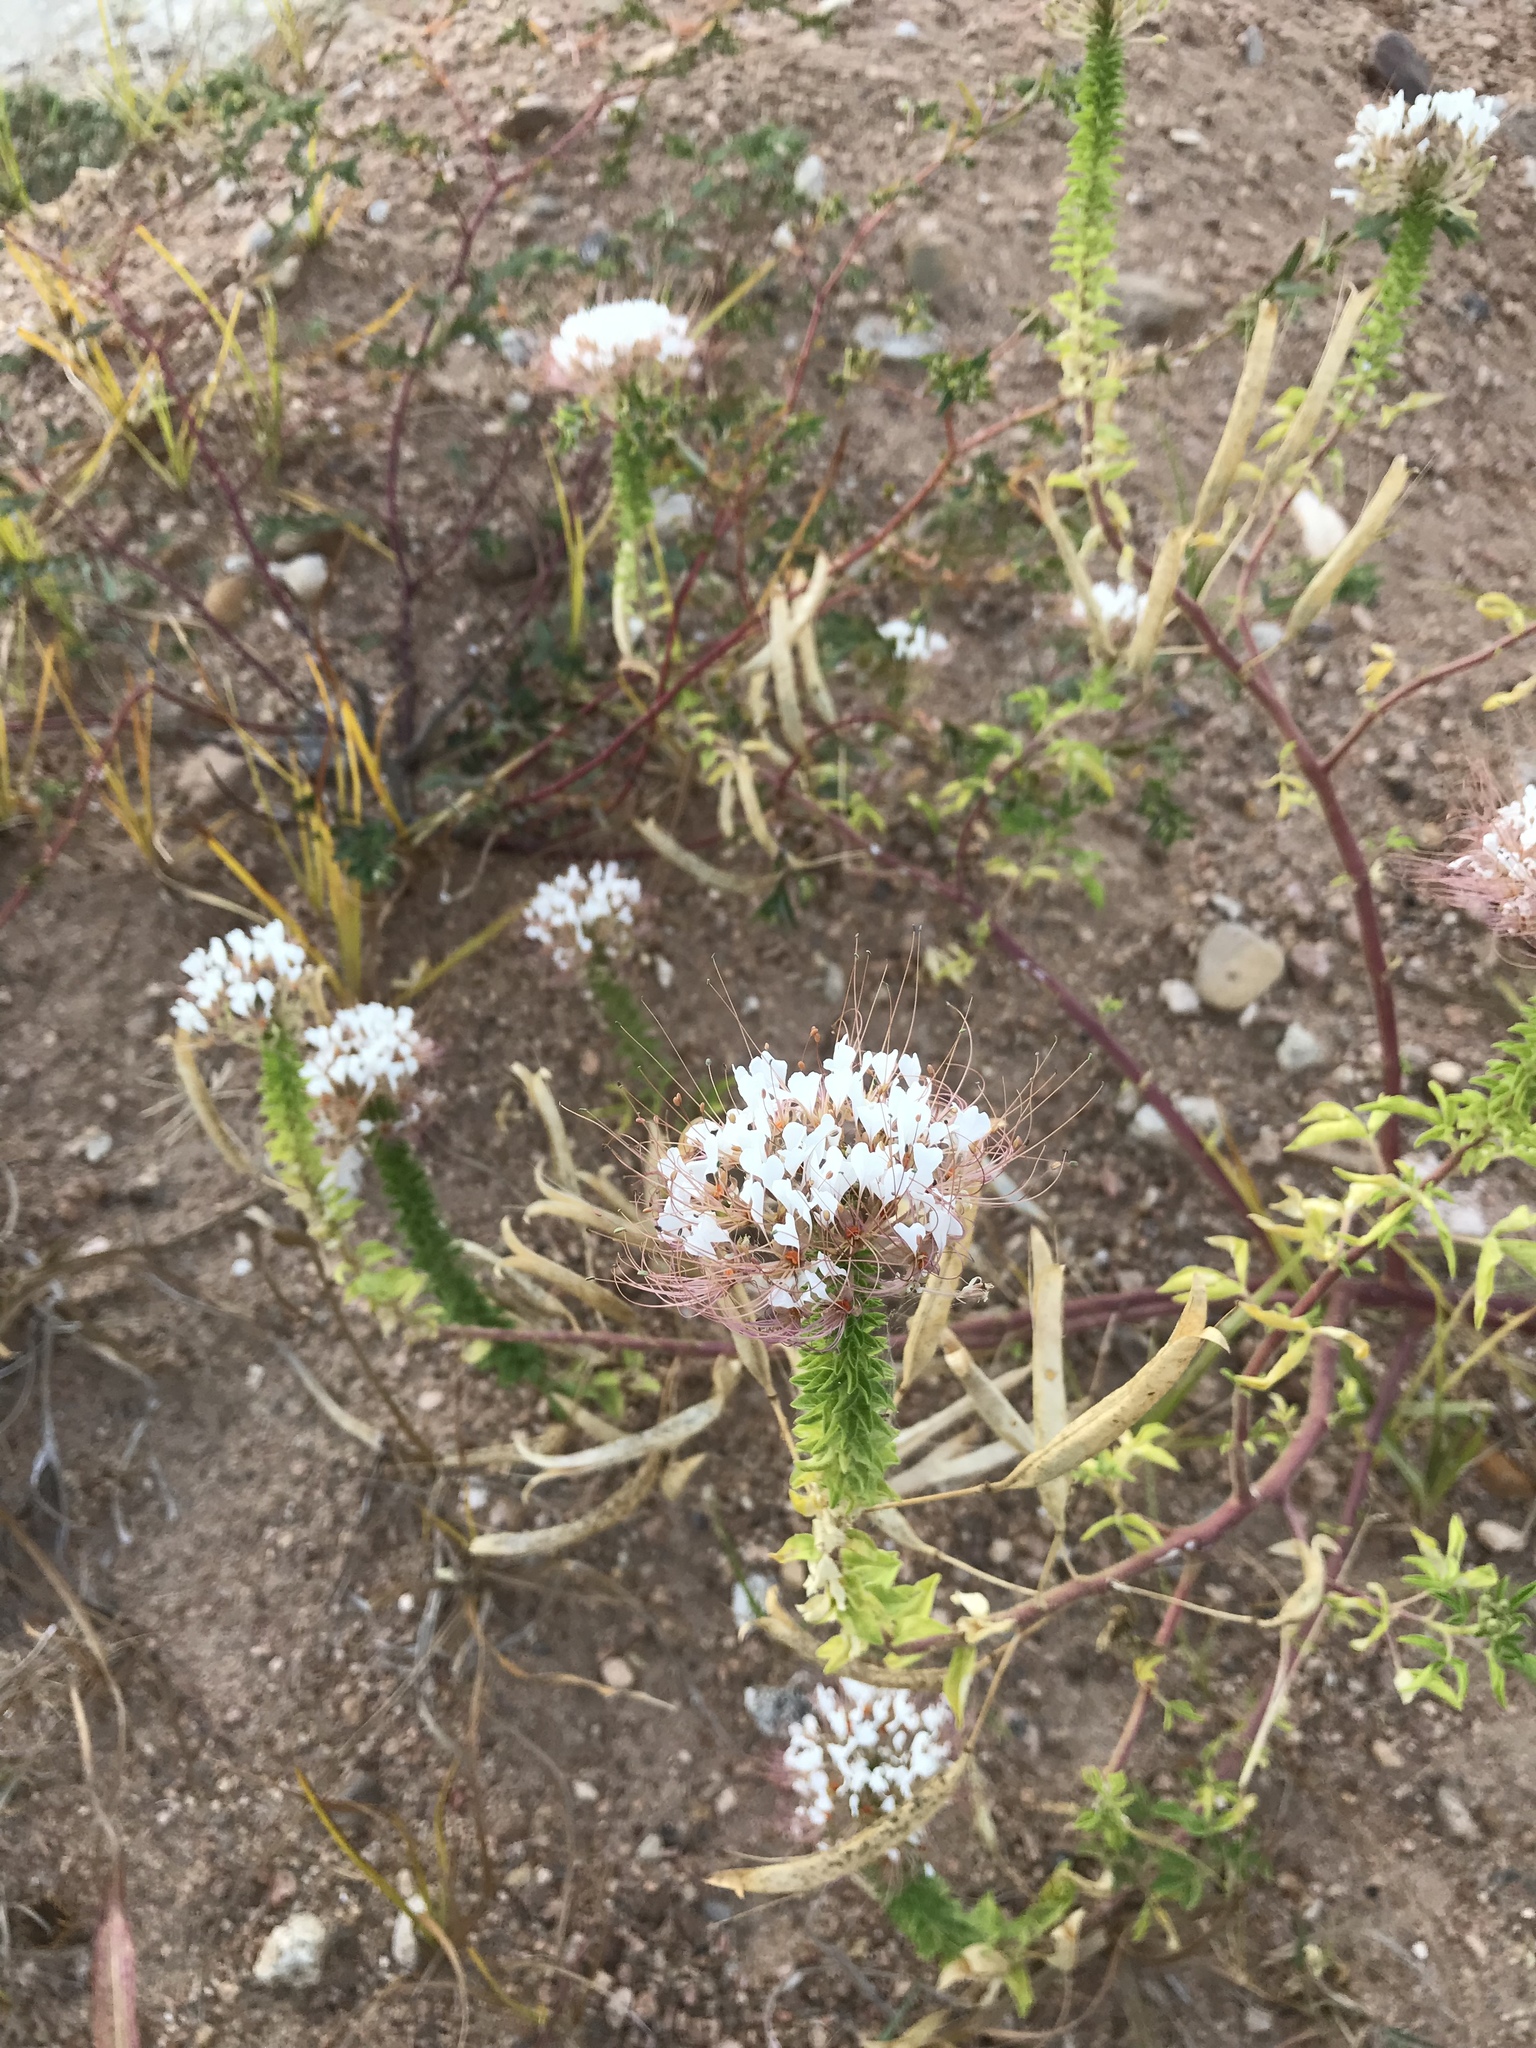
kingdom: Plantae
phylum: Tracheophyta
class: Magnoliopsida
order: Brassicales
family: Cleomaceae
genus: Polanisia
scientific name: Polanisia dodecandra
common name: Clammyweed
